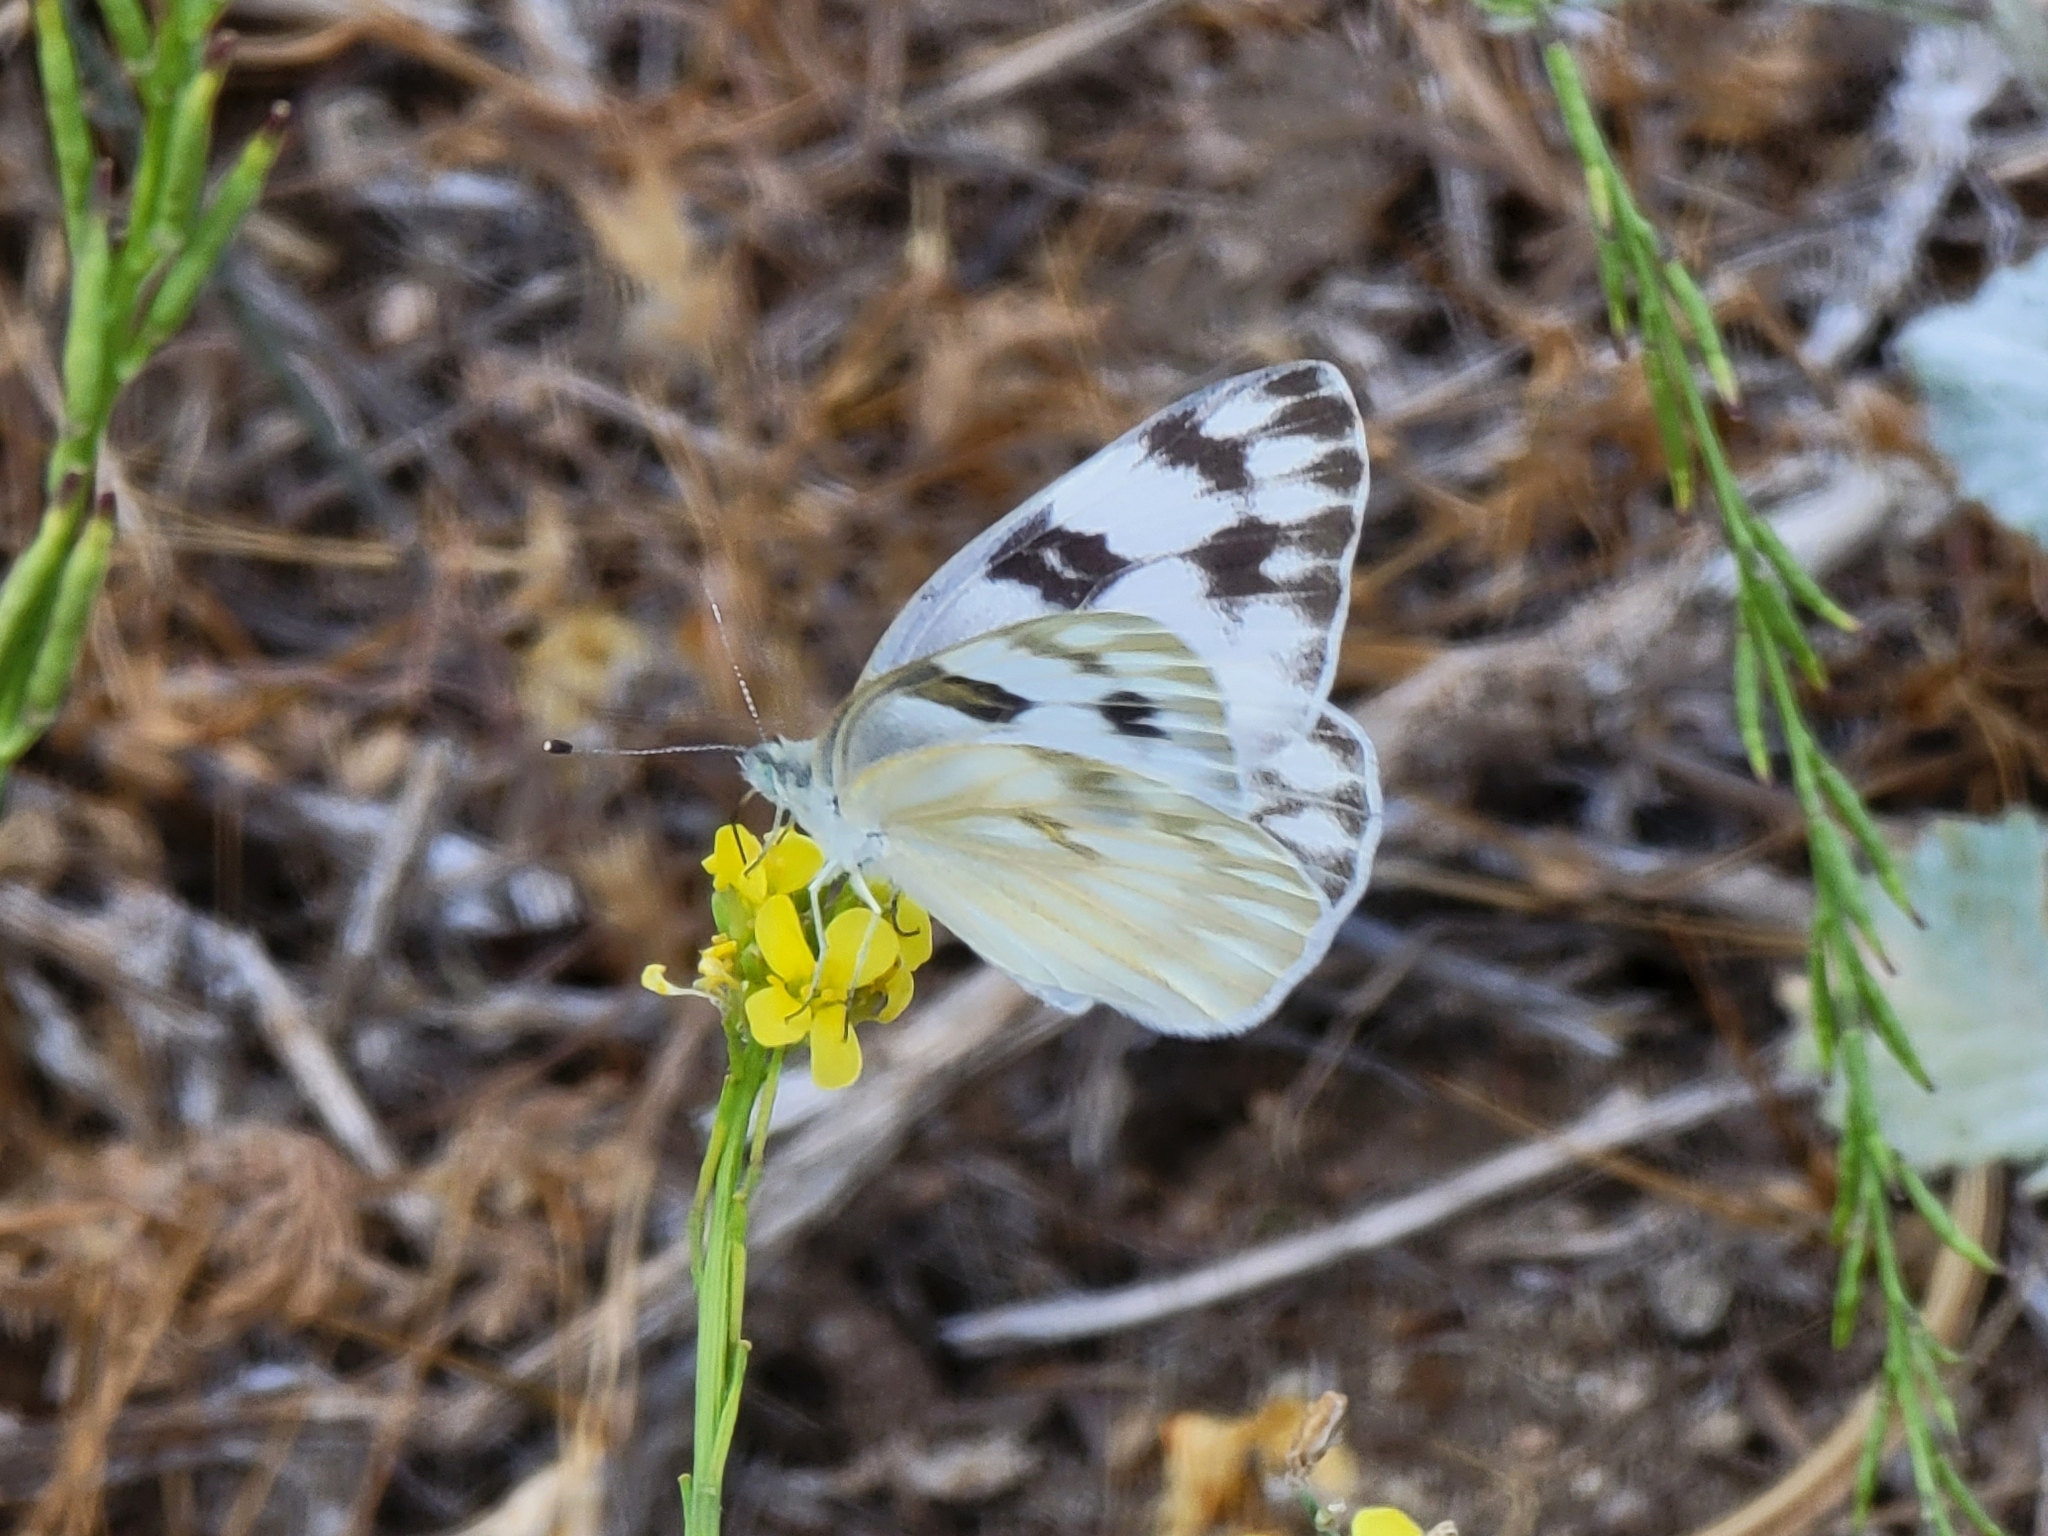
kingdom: Animalia
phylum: Arthropoda
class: Insecta
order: Lepidoptera
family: Pieridae
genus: Pontia
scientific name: Pontia protodice
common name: Checkered white
